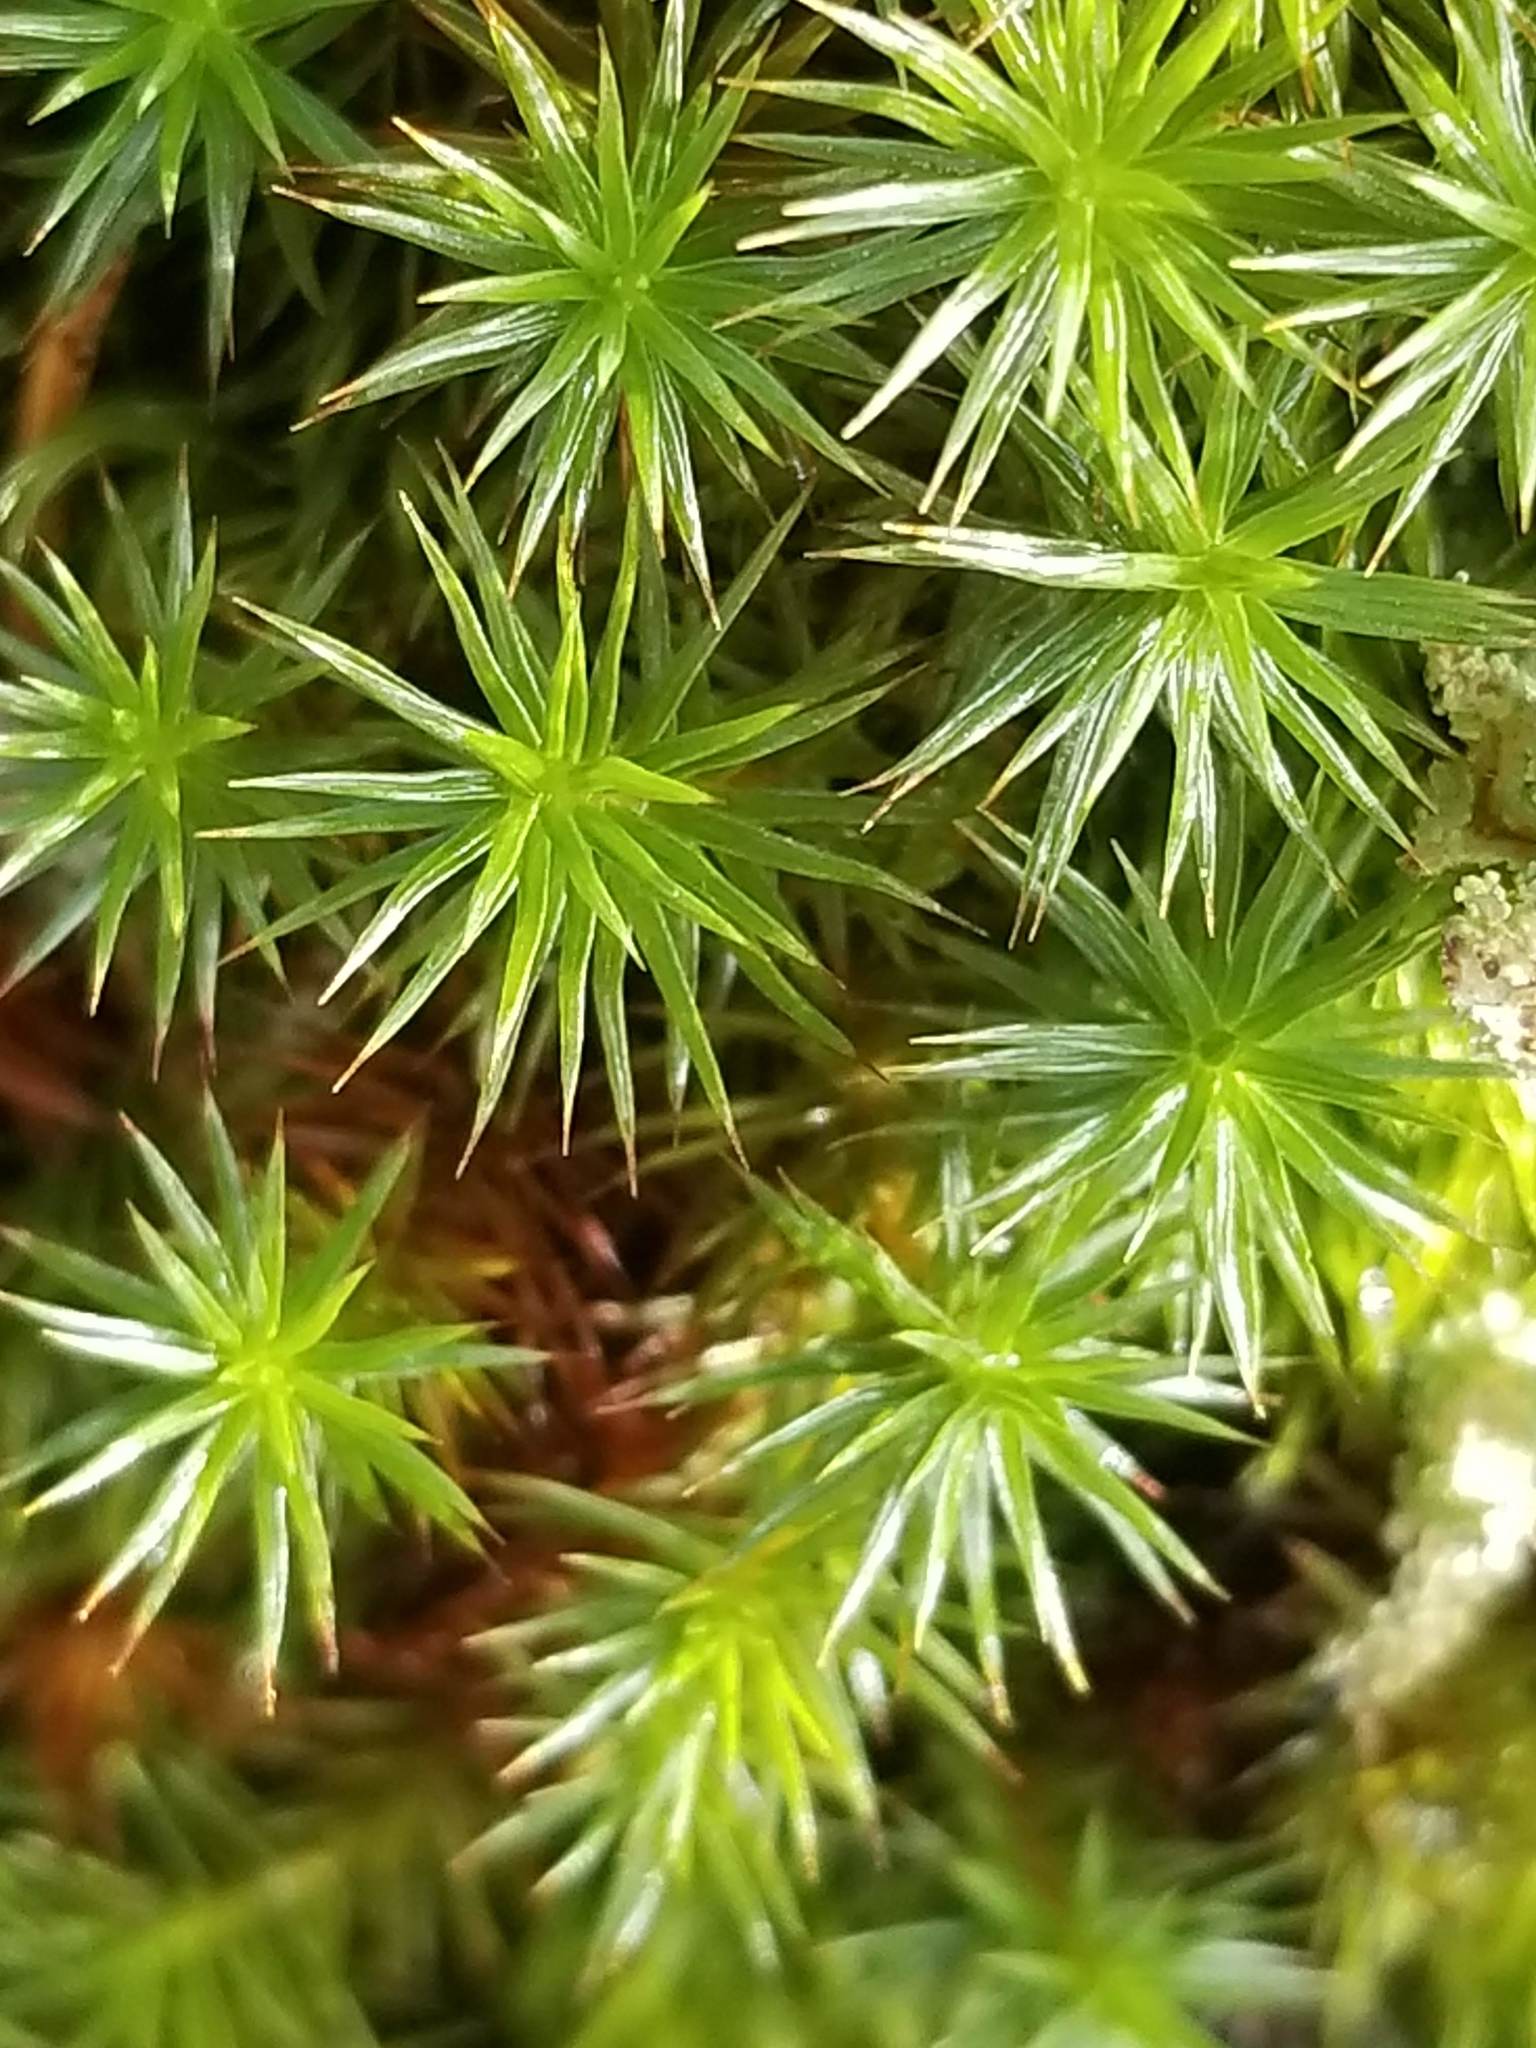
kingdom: Plantae
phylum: Bryophyta
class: Polytrichopsida
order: Polytrichales
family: Polytrichaceae
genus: Polytrichum
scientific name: Polytrichum juniperinum
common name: Juniper haircap moss
